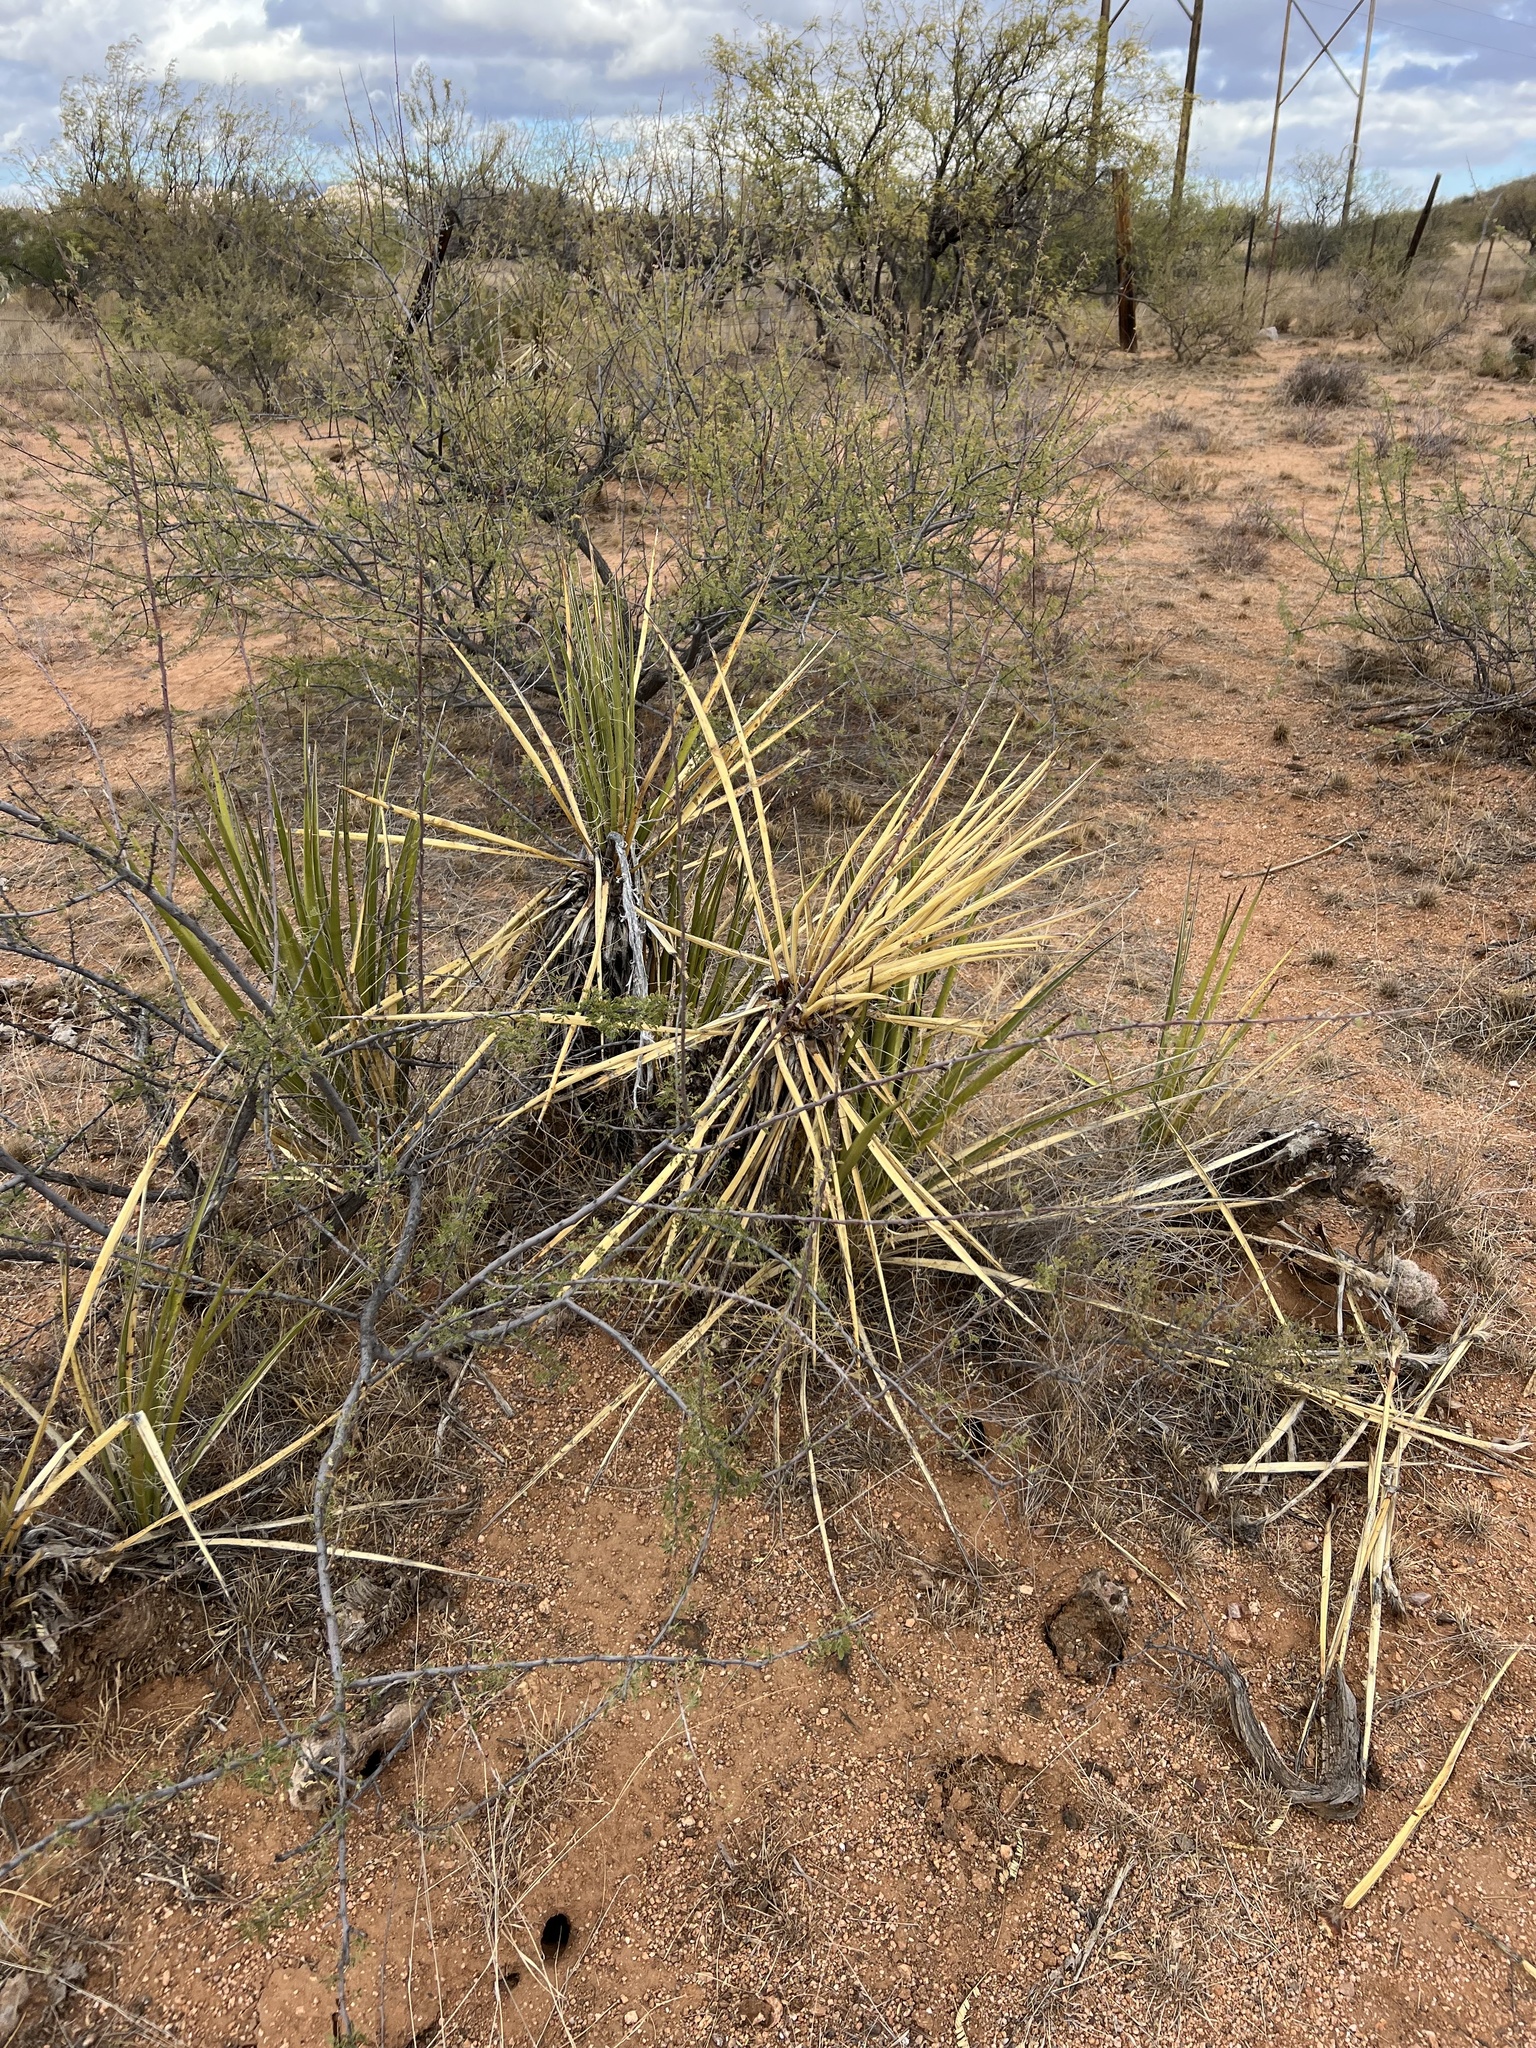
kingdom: Plantae
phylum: Tracheophyta
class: Liliopsida
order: Asparagales
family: Asparagaceae
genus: Yucca
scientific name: Yucca baccata
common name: Banana yucca
